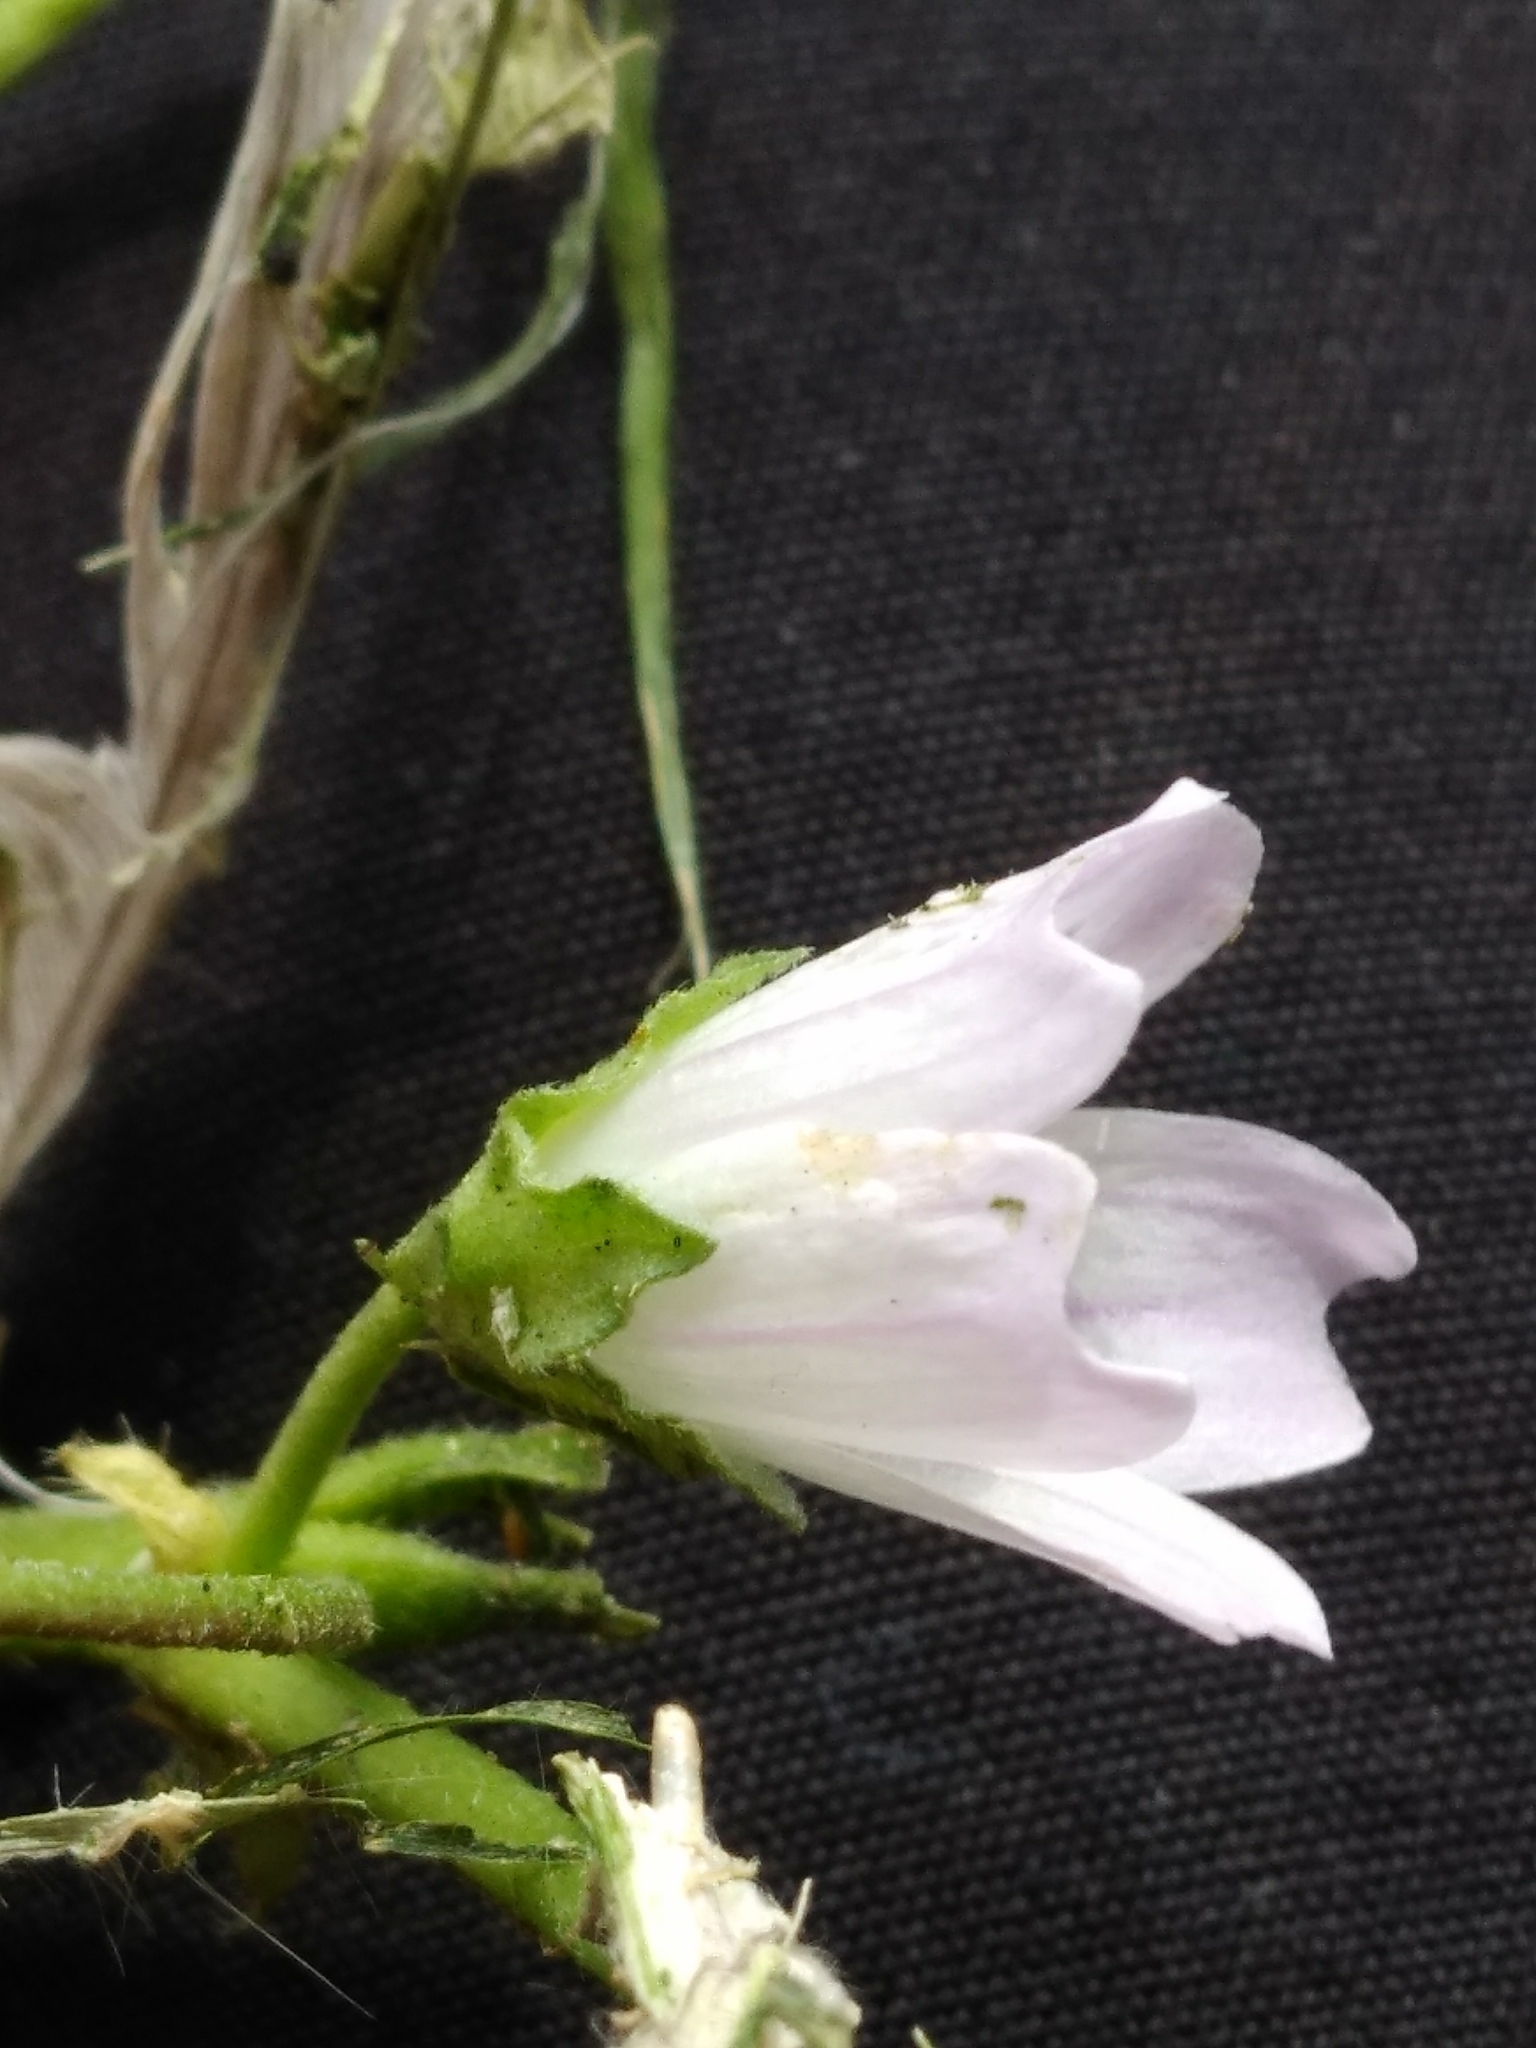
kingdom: Plantae
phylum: Tracheophyta
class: Magnoliopsida
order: Malvales
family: Malvaceae
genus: Malva
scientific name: Malva neglecta
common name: Common mallow
